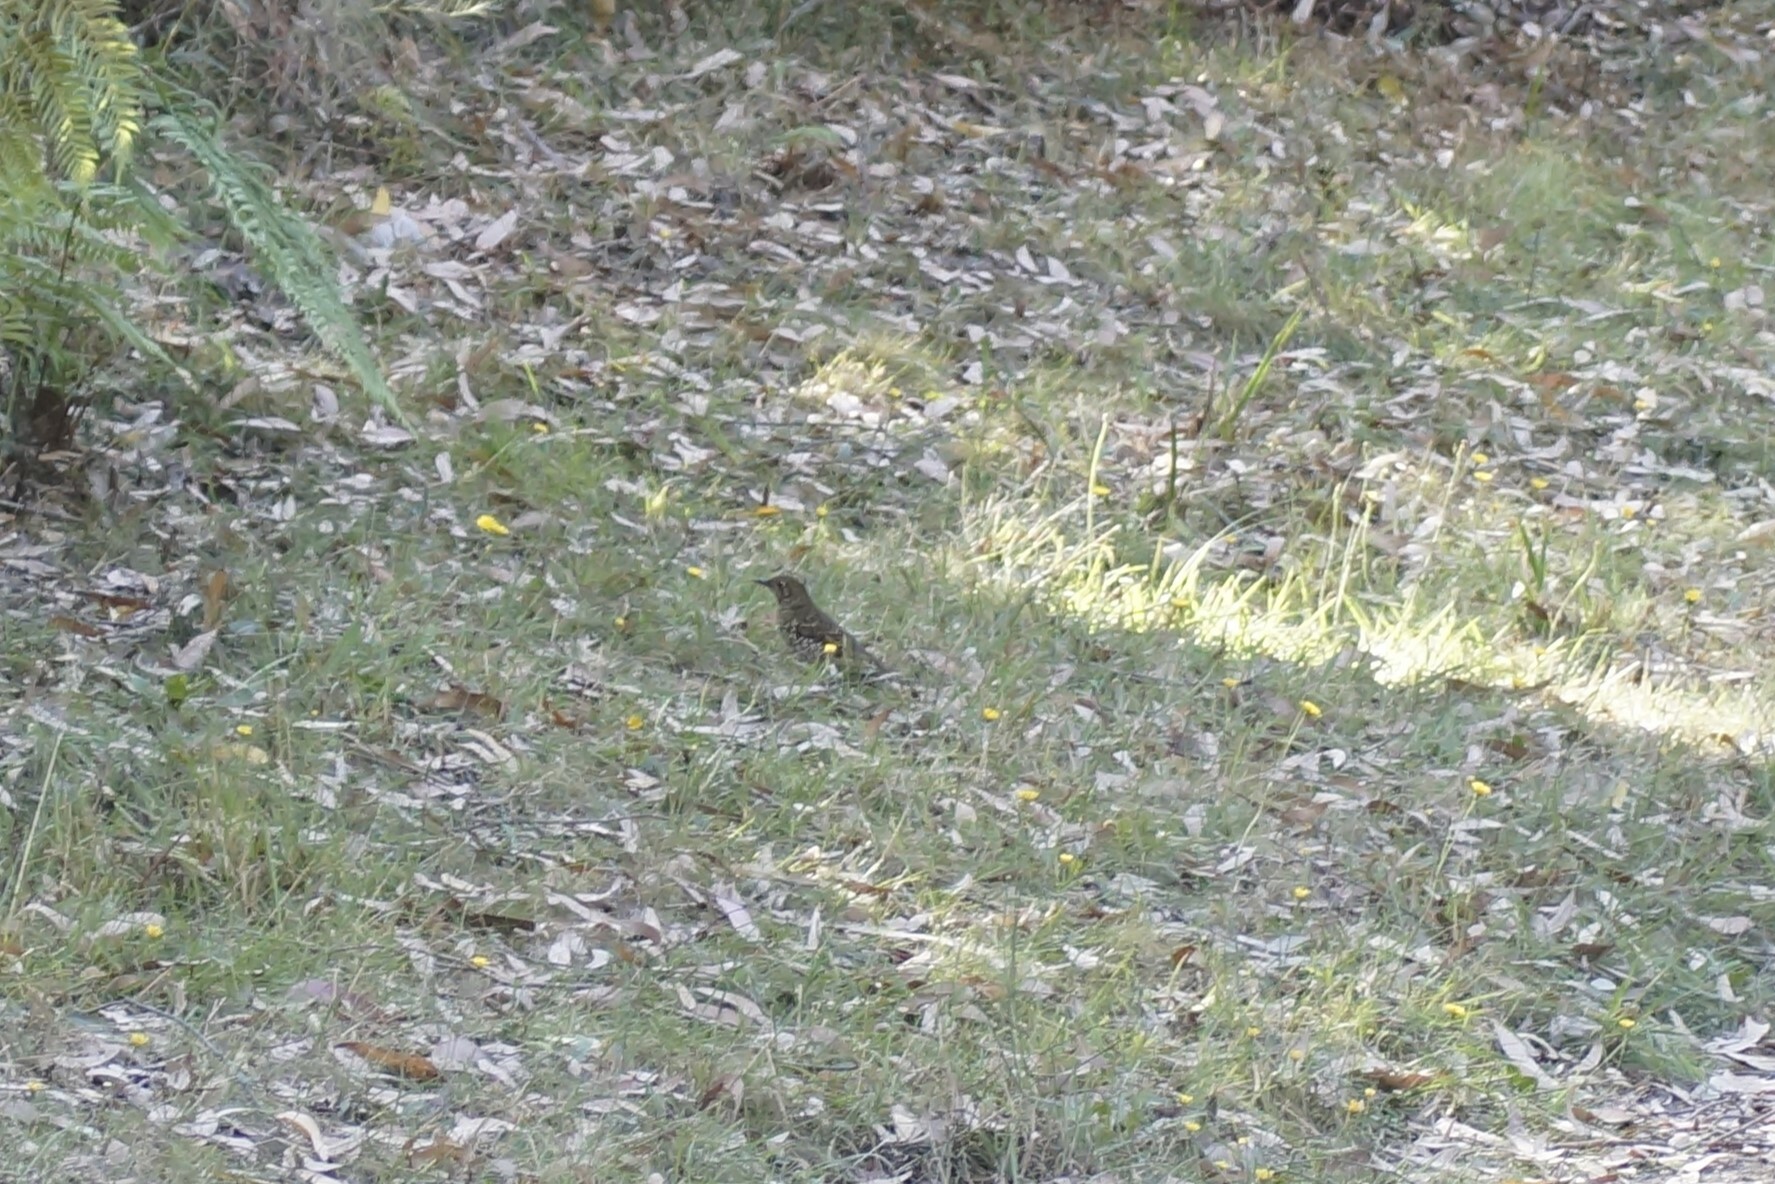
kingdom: Animalia
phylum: Chordata
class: Aves
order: Passeriformes
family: Turdidae
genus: Zoothera
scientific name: Zoothera lunulata
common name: Bassian thrush
